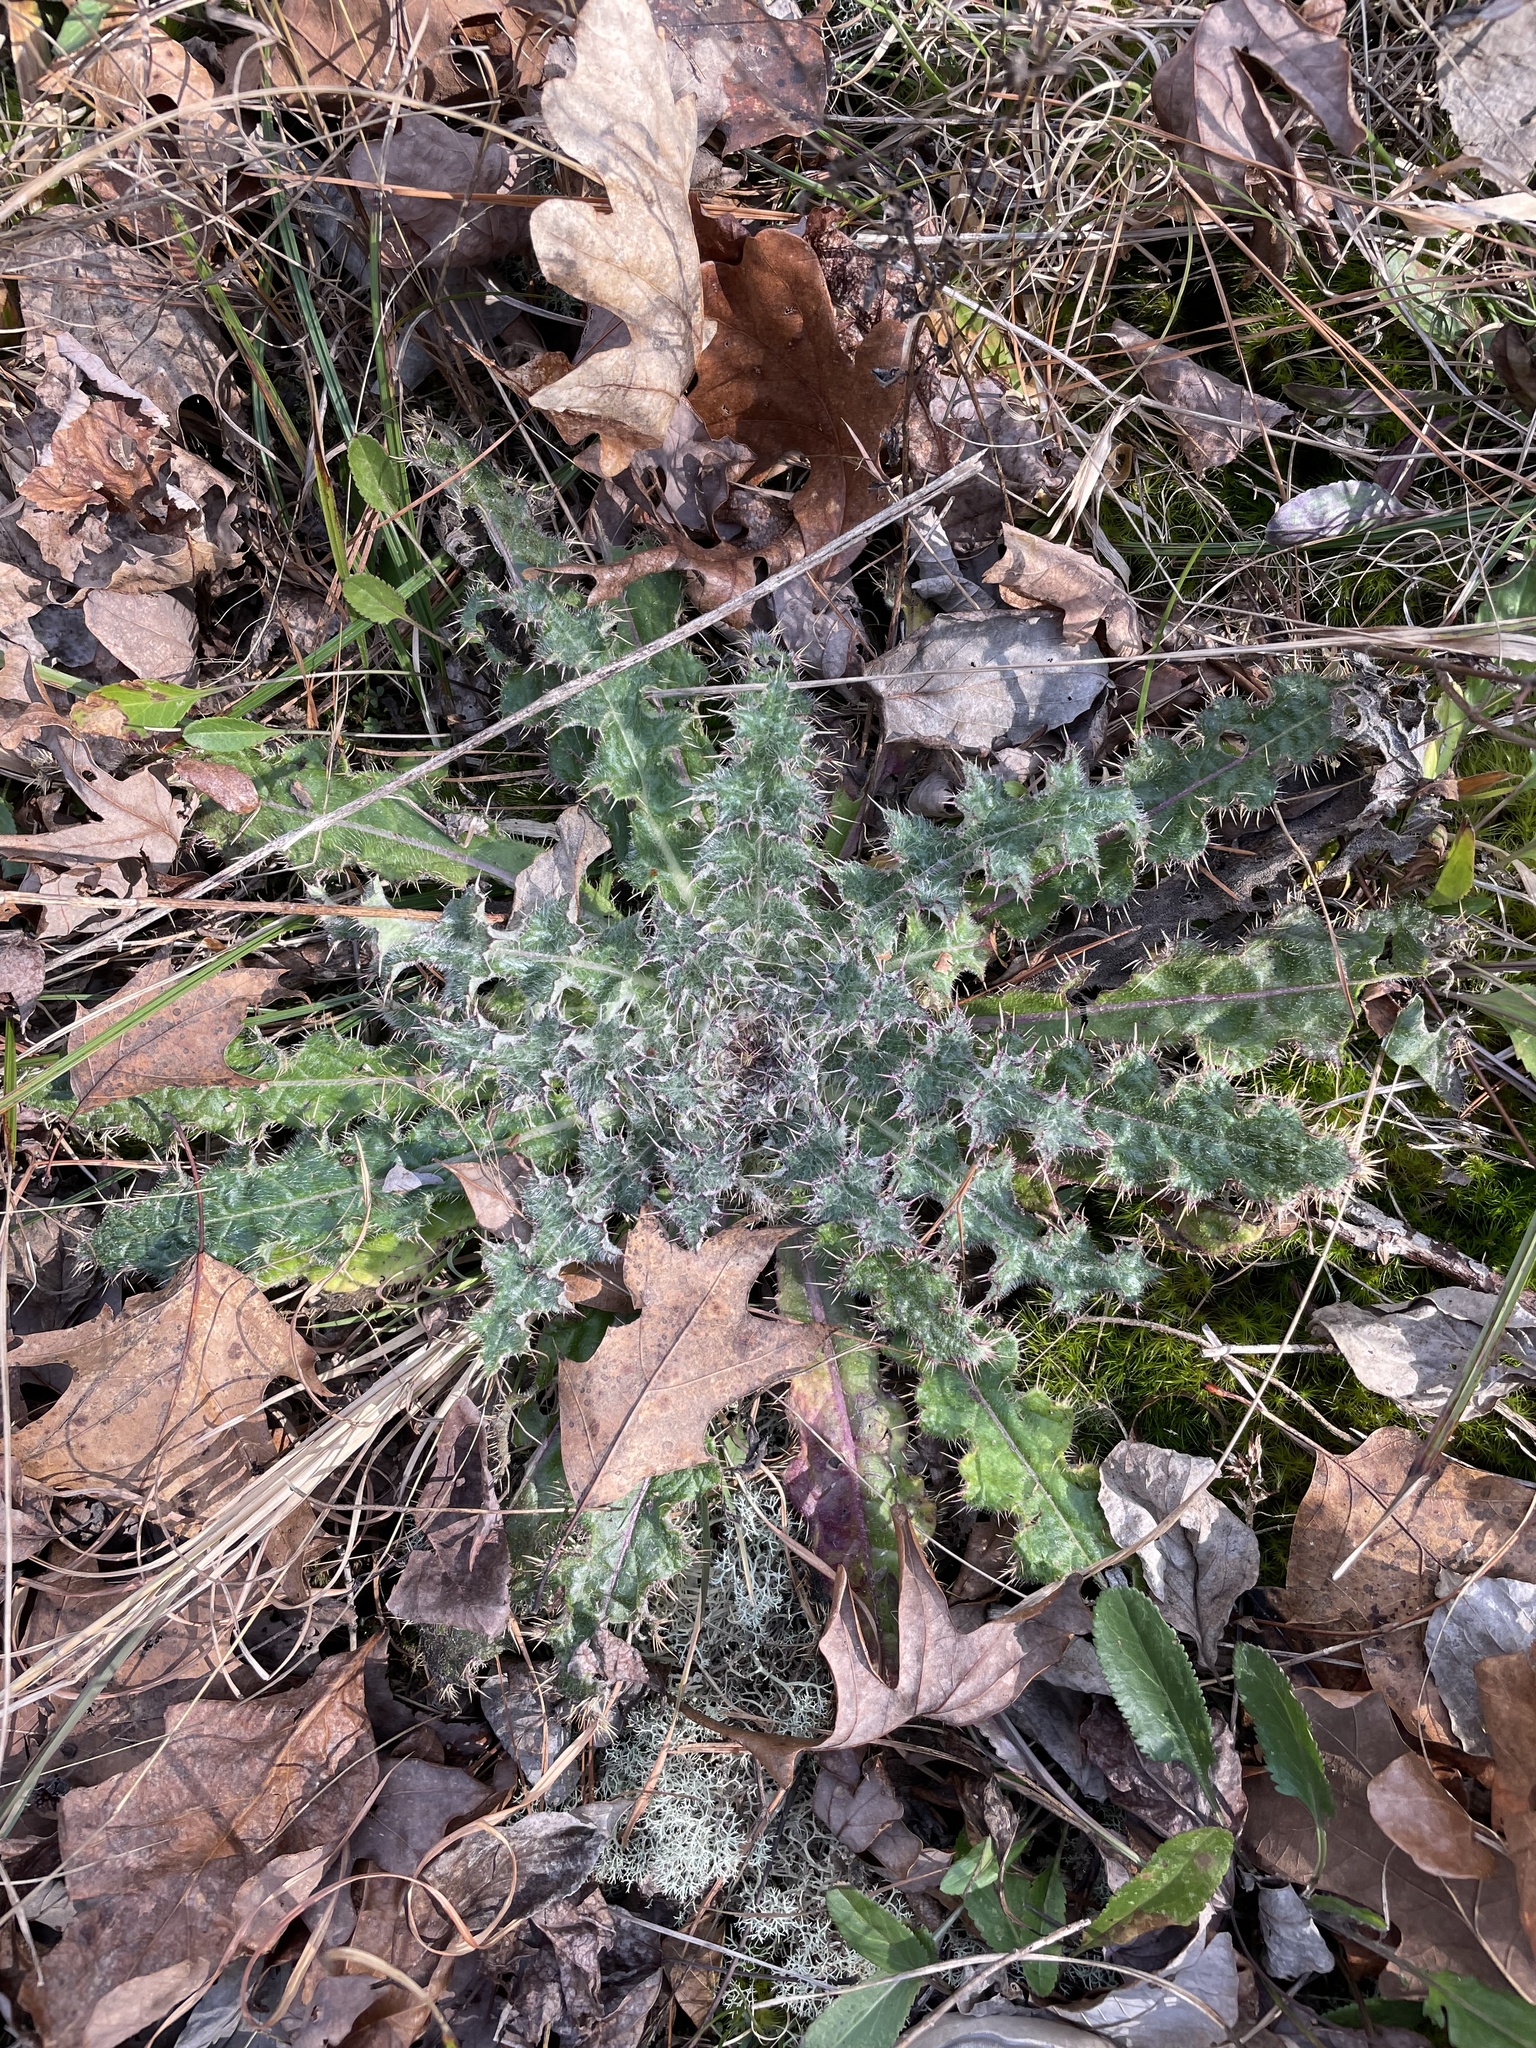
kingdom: Plantae
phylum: Tracheophyta
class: Magnoliopsida
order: Asterales
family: Asteraceae
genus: Cirsium
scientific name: Cirsium horridulum
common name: Bristly thistle
